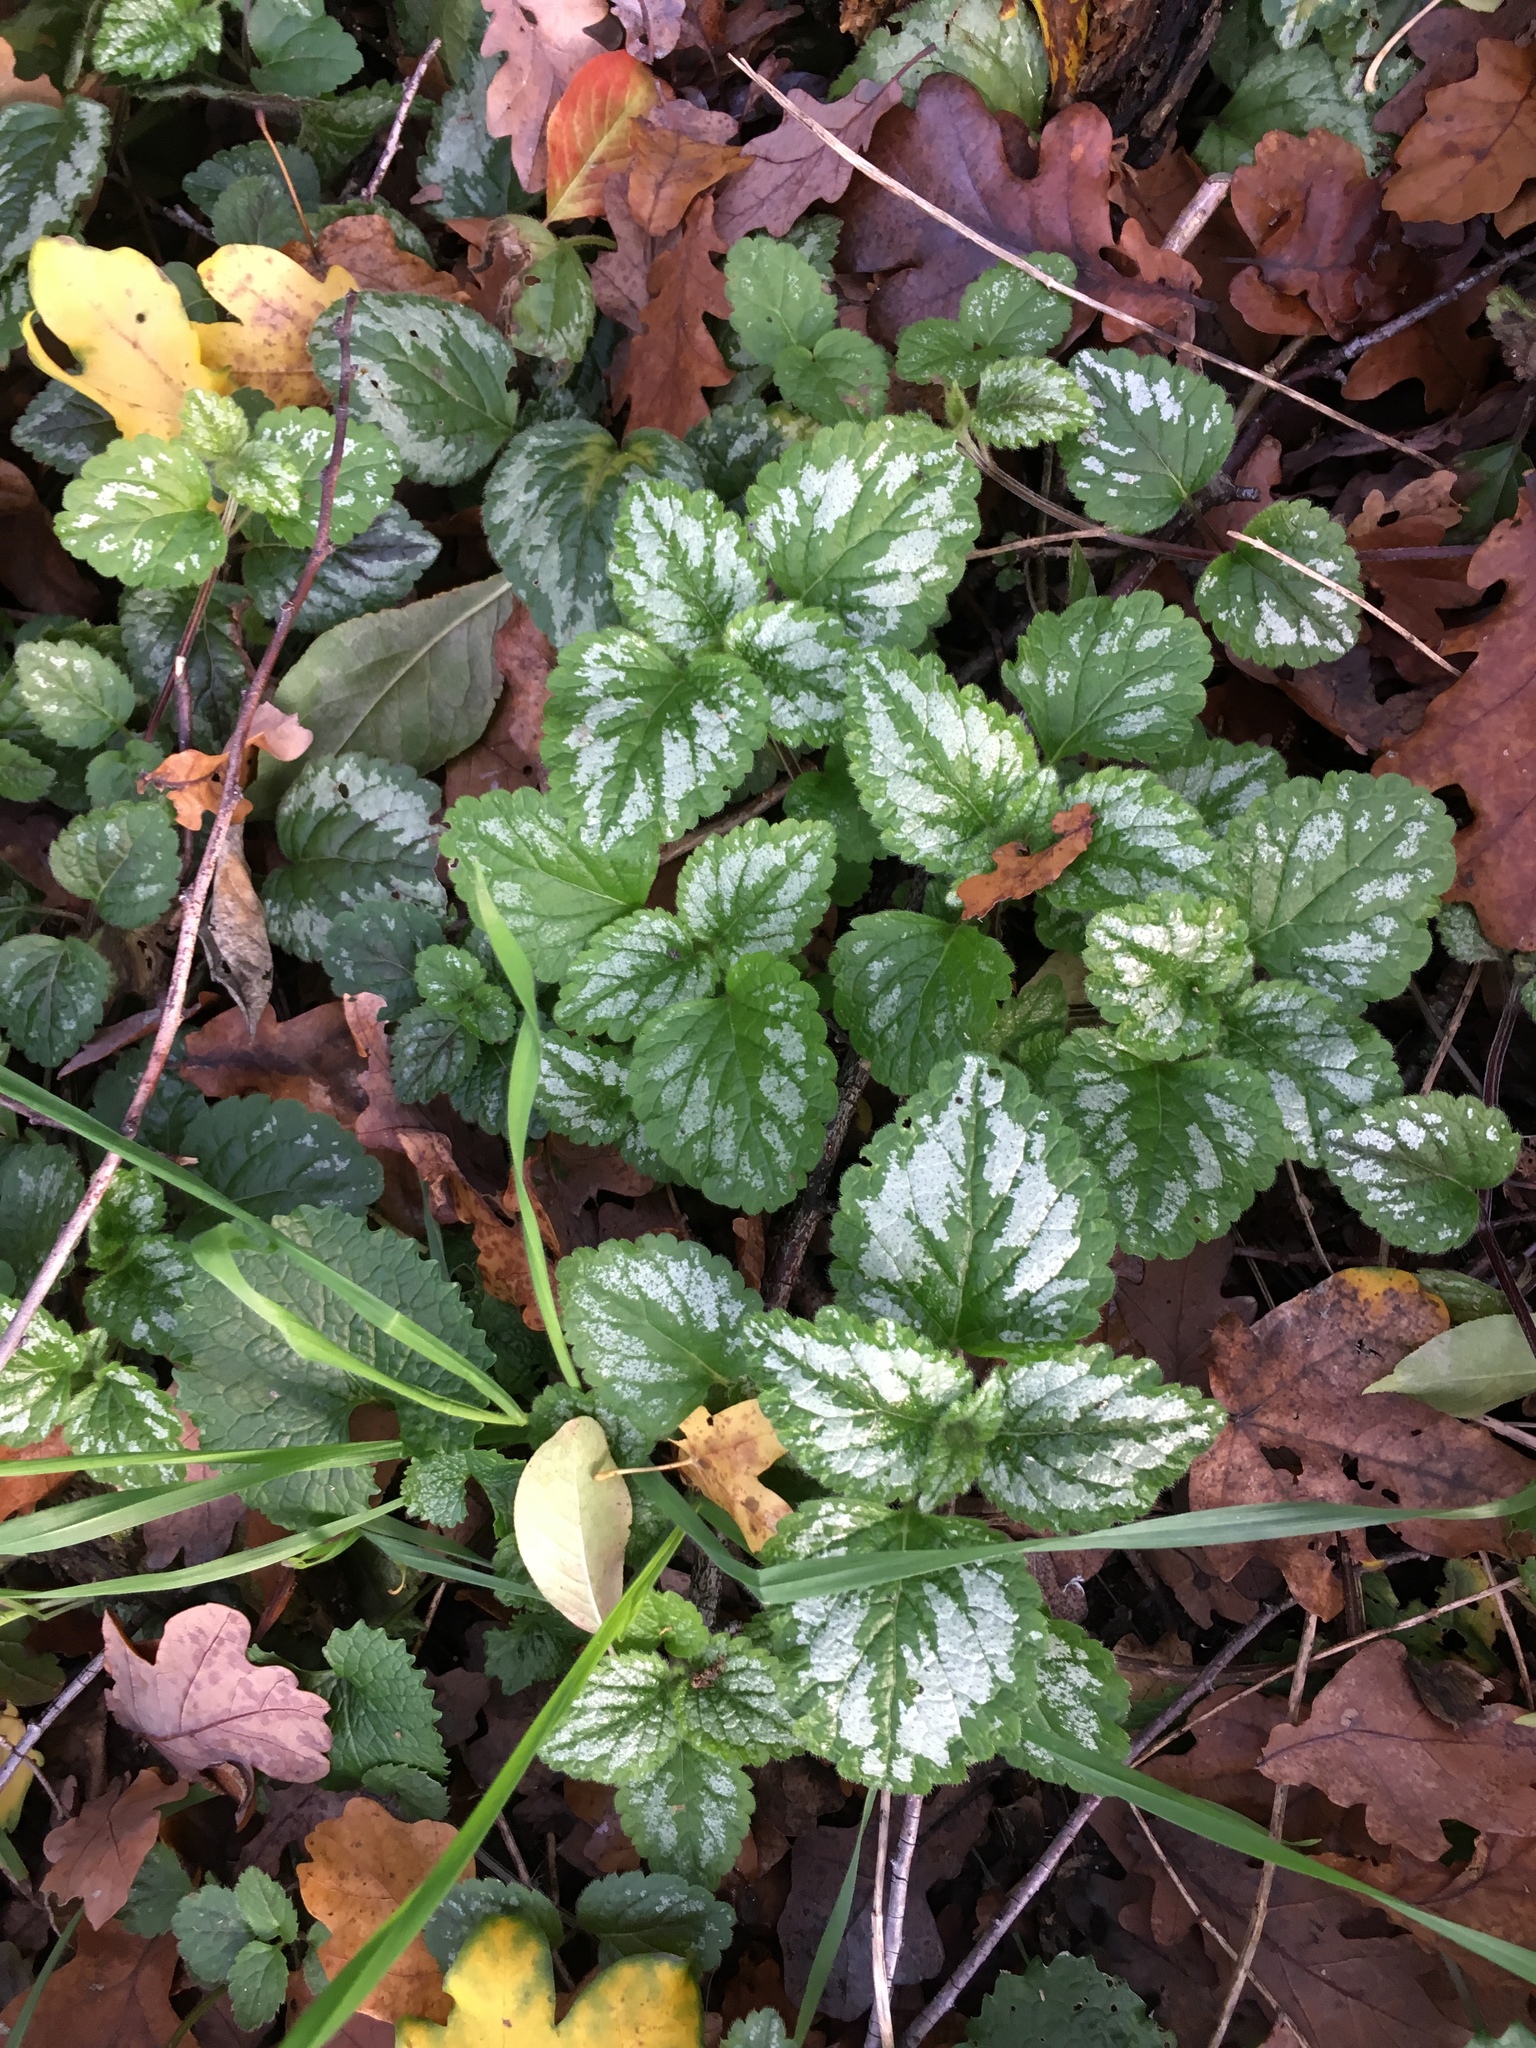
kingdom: Plantae
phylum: Tracheophyta
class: Magnoliopsida
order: Lamiales
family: Lamiaceae
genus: Lamium
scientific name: Lamium galeobdolon
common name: Yellow archangel
